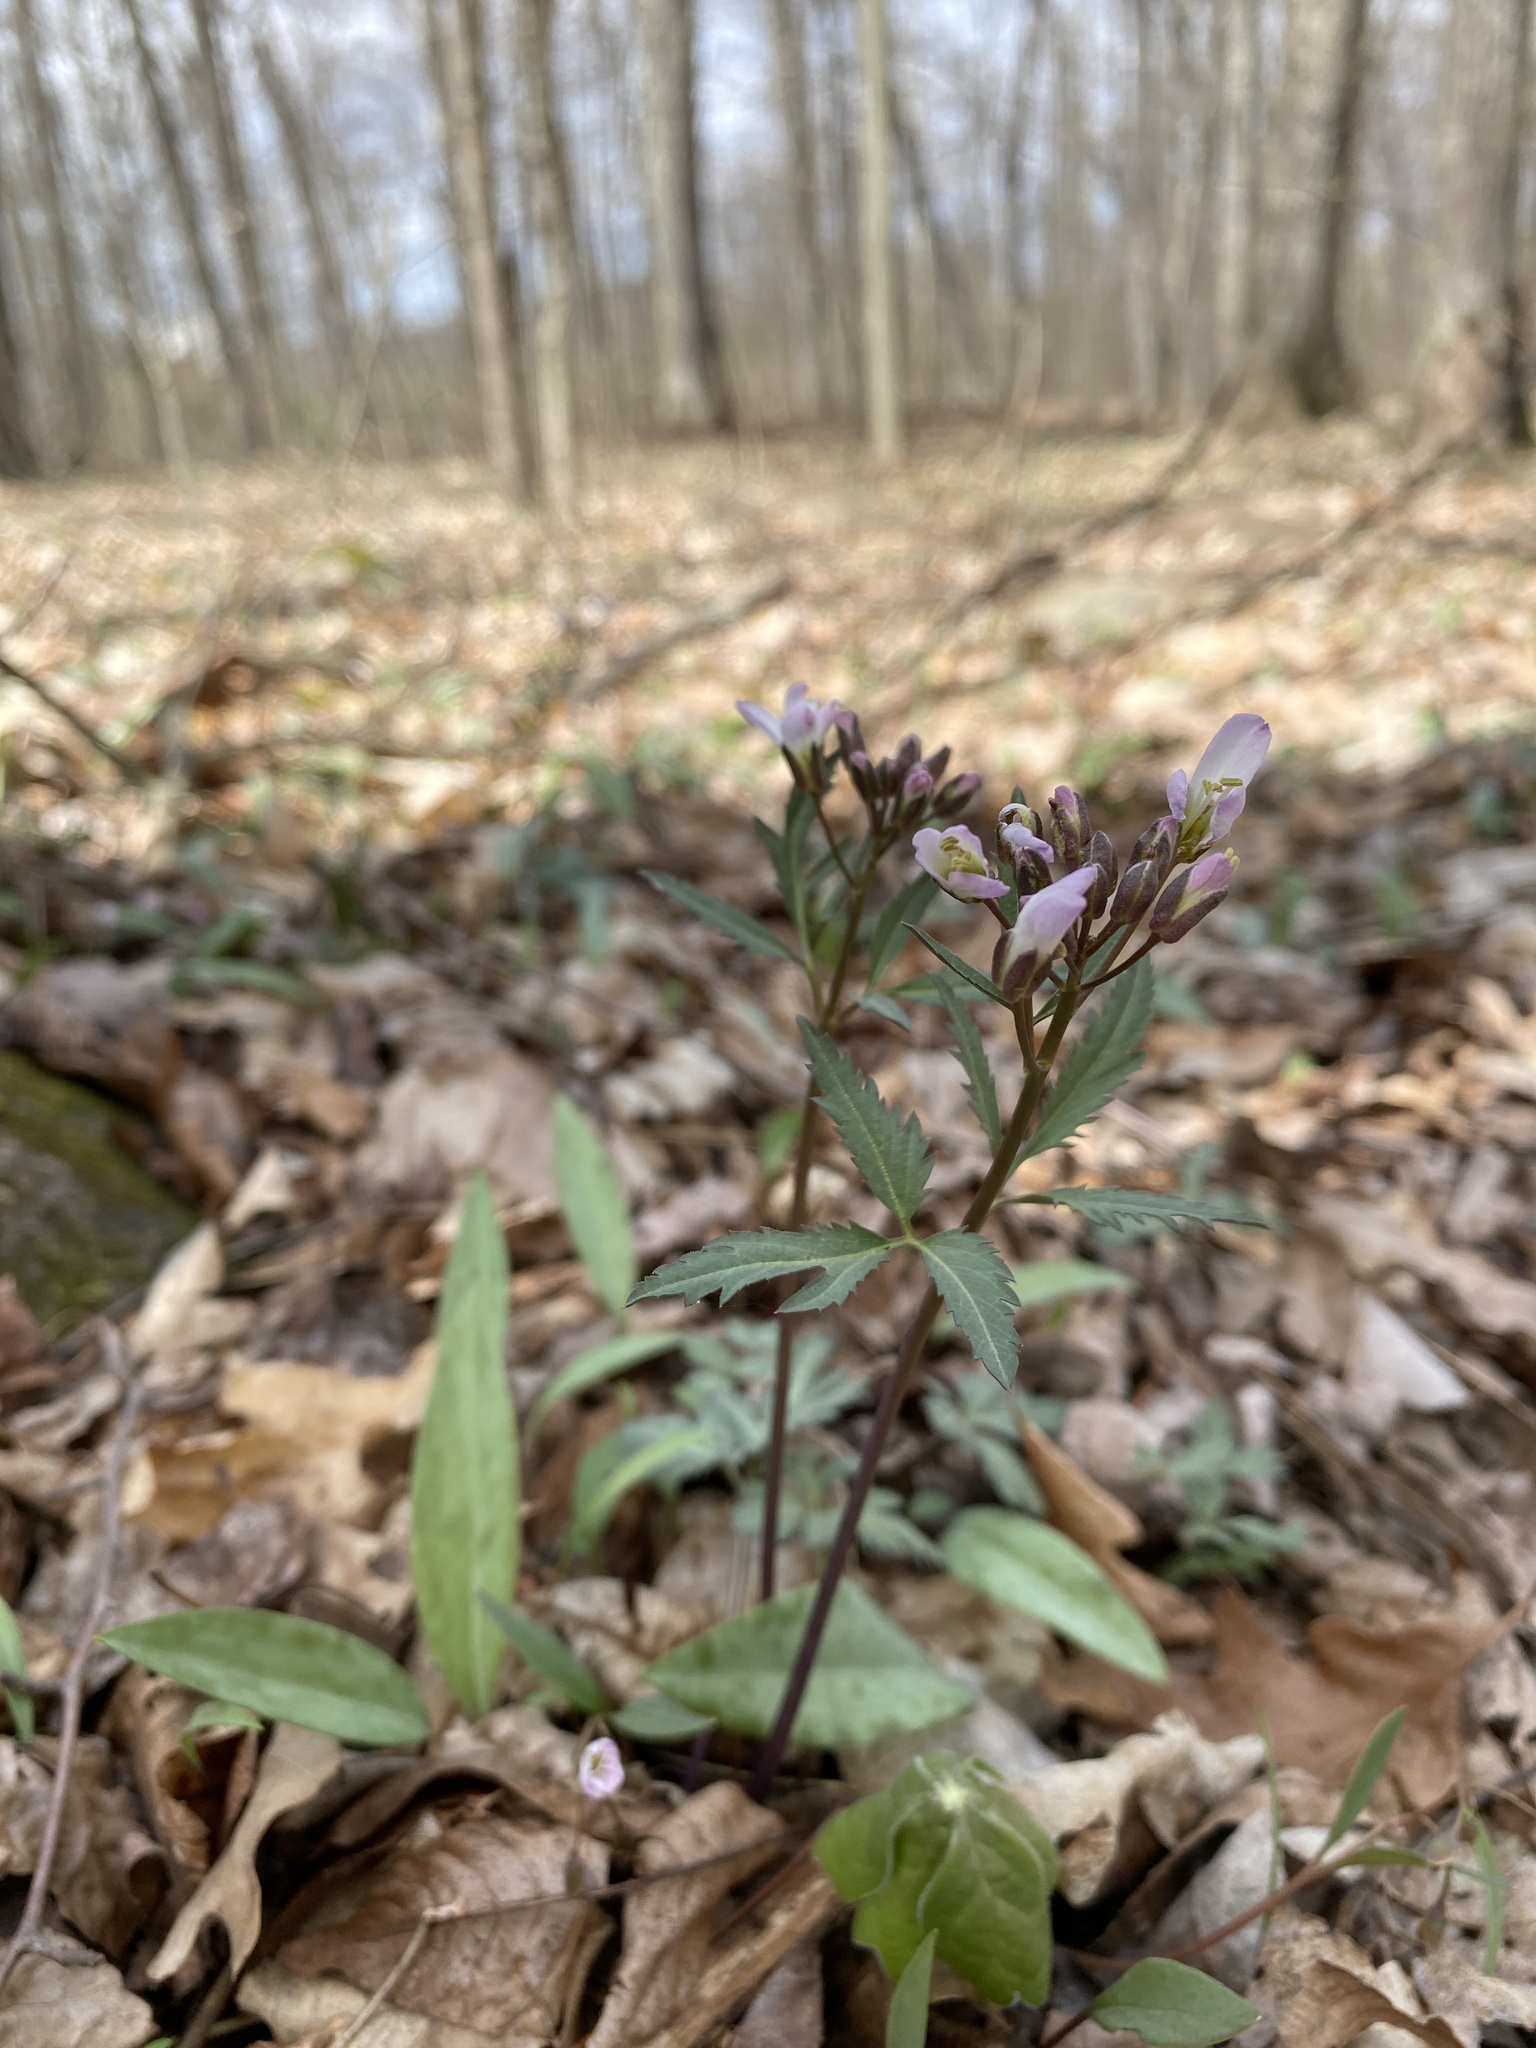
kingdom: Plantae
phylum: Tracheophyta
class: Magnoliopsida
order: Brassicales
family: Brassicaceae
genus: Cardamine
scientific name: Cardamine angustata
